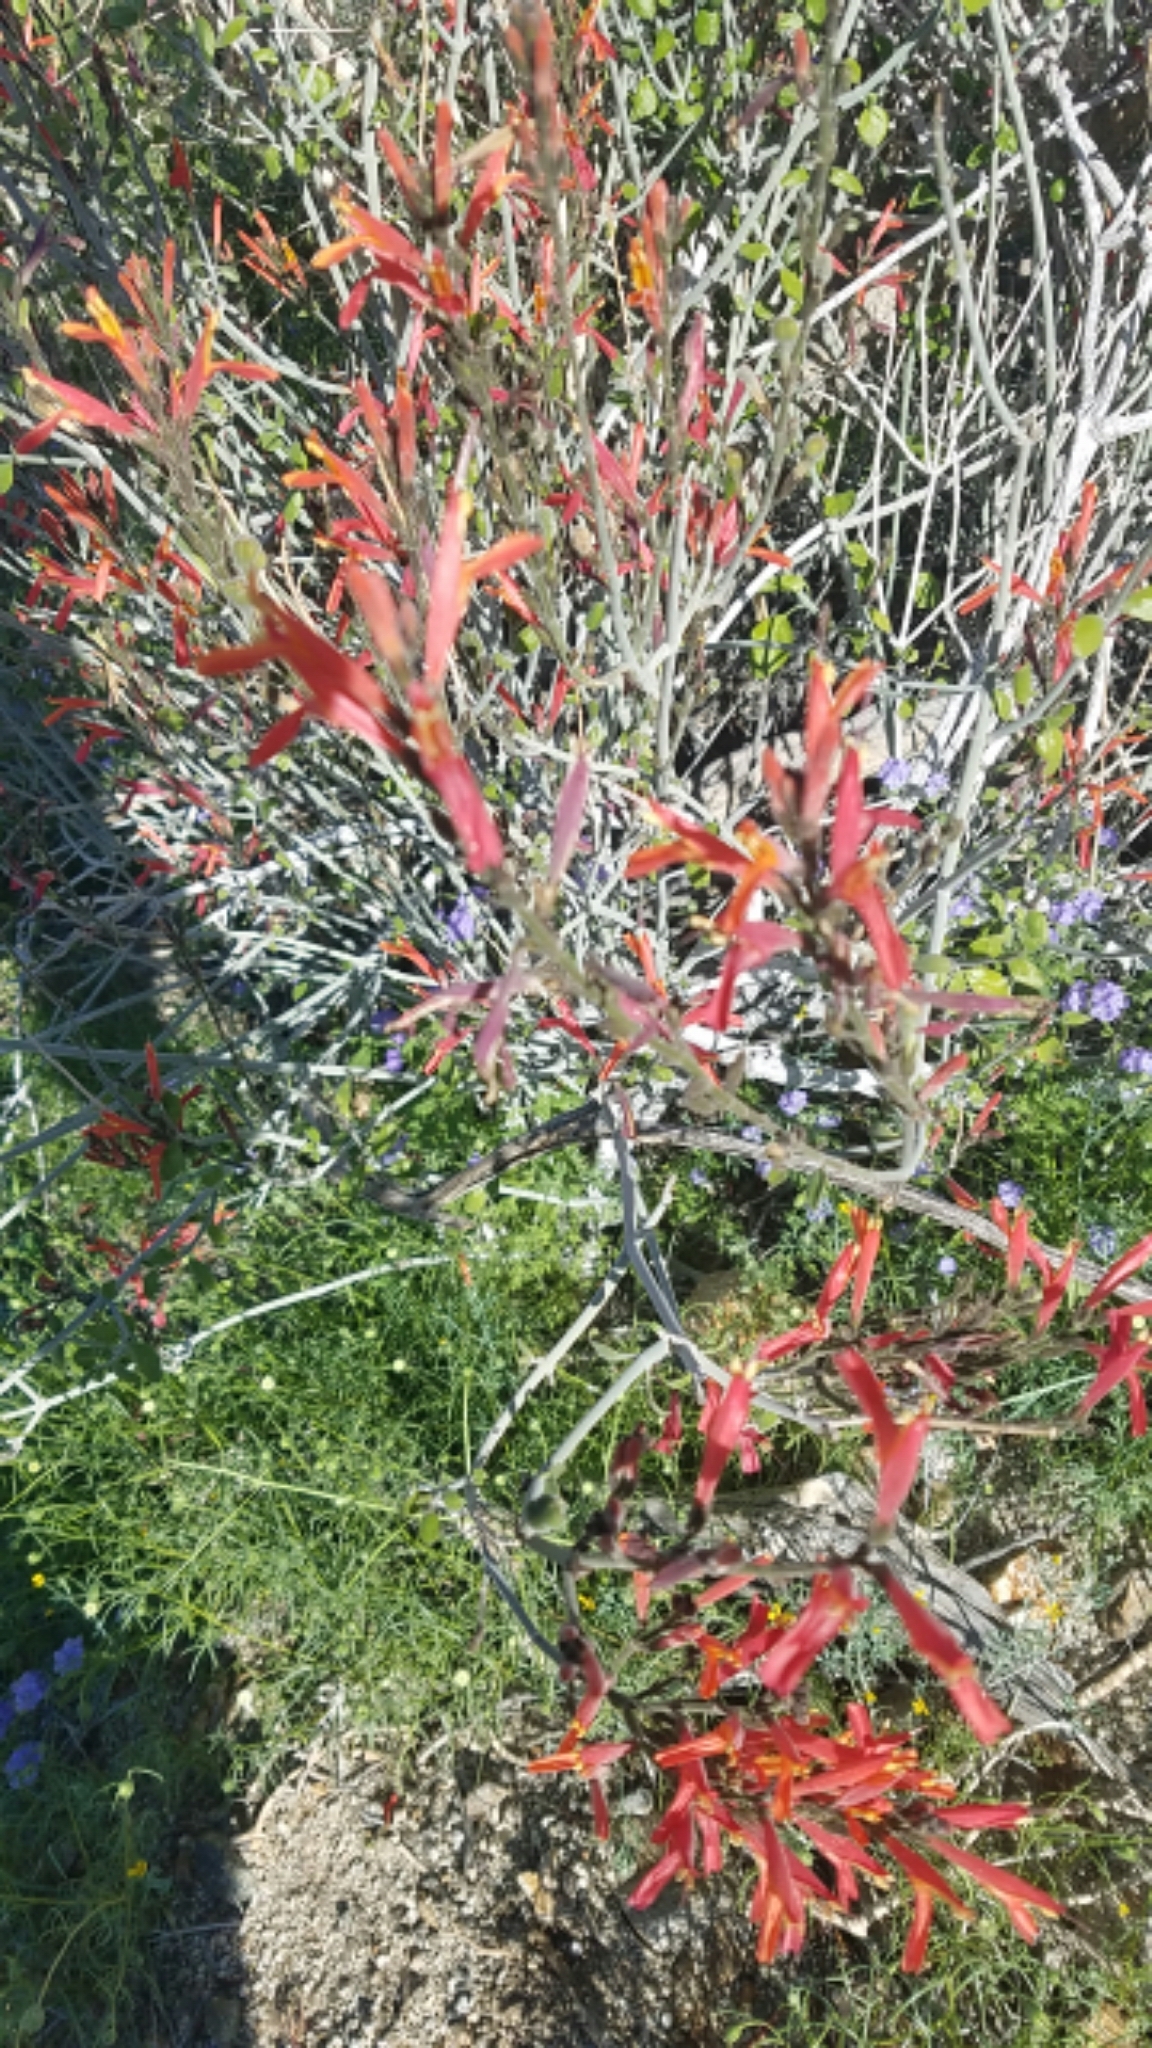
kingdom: Plantae
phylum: Tracheophyta
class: Magnoliopsida
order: Lamiales
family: Acanthaceae
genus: Justicia
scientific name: Justicia californica
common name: Chuparosa-honeysuckle
